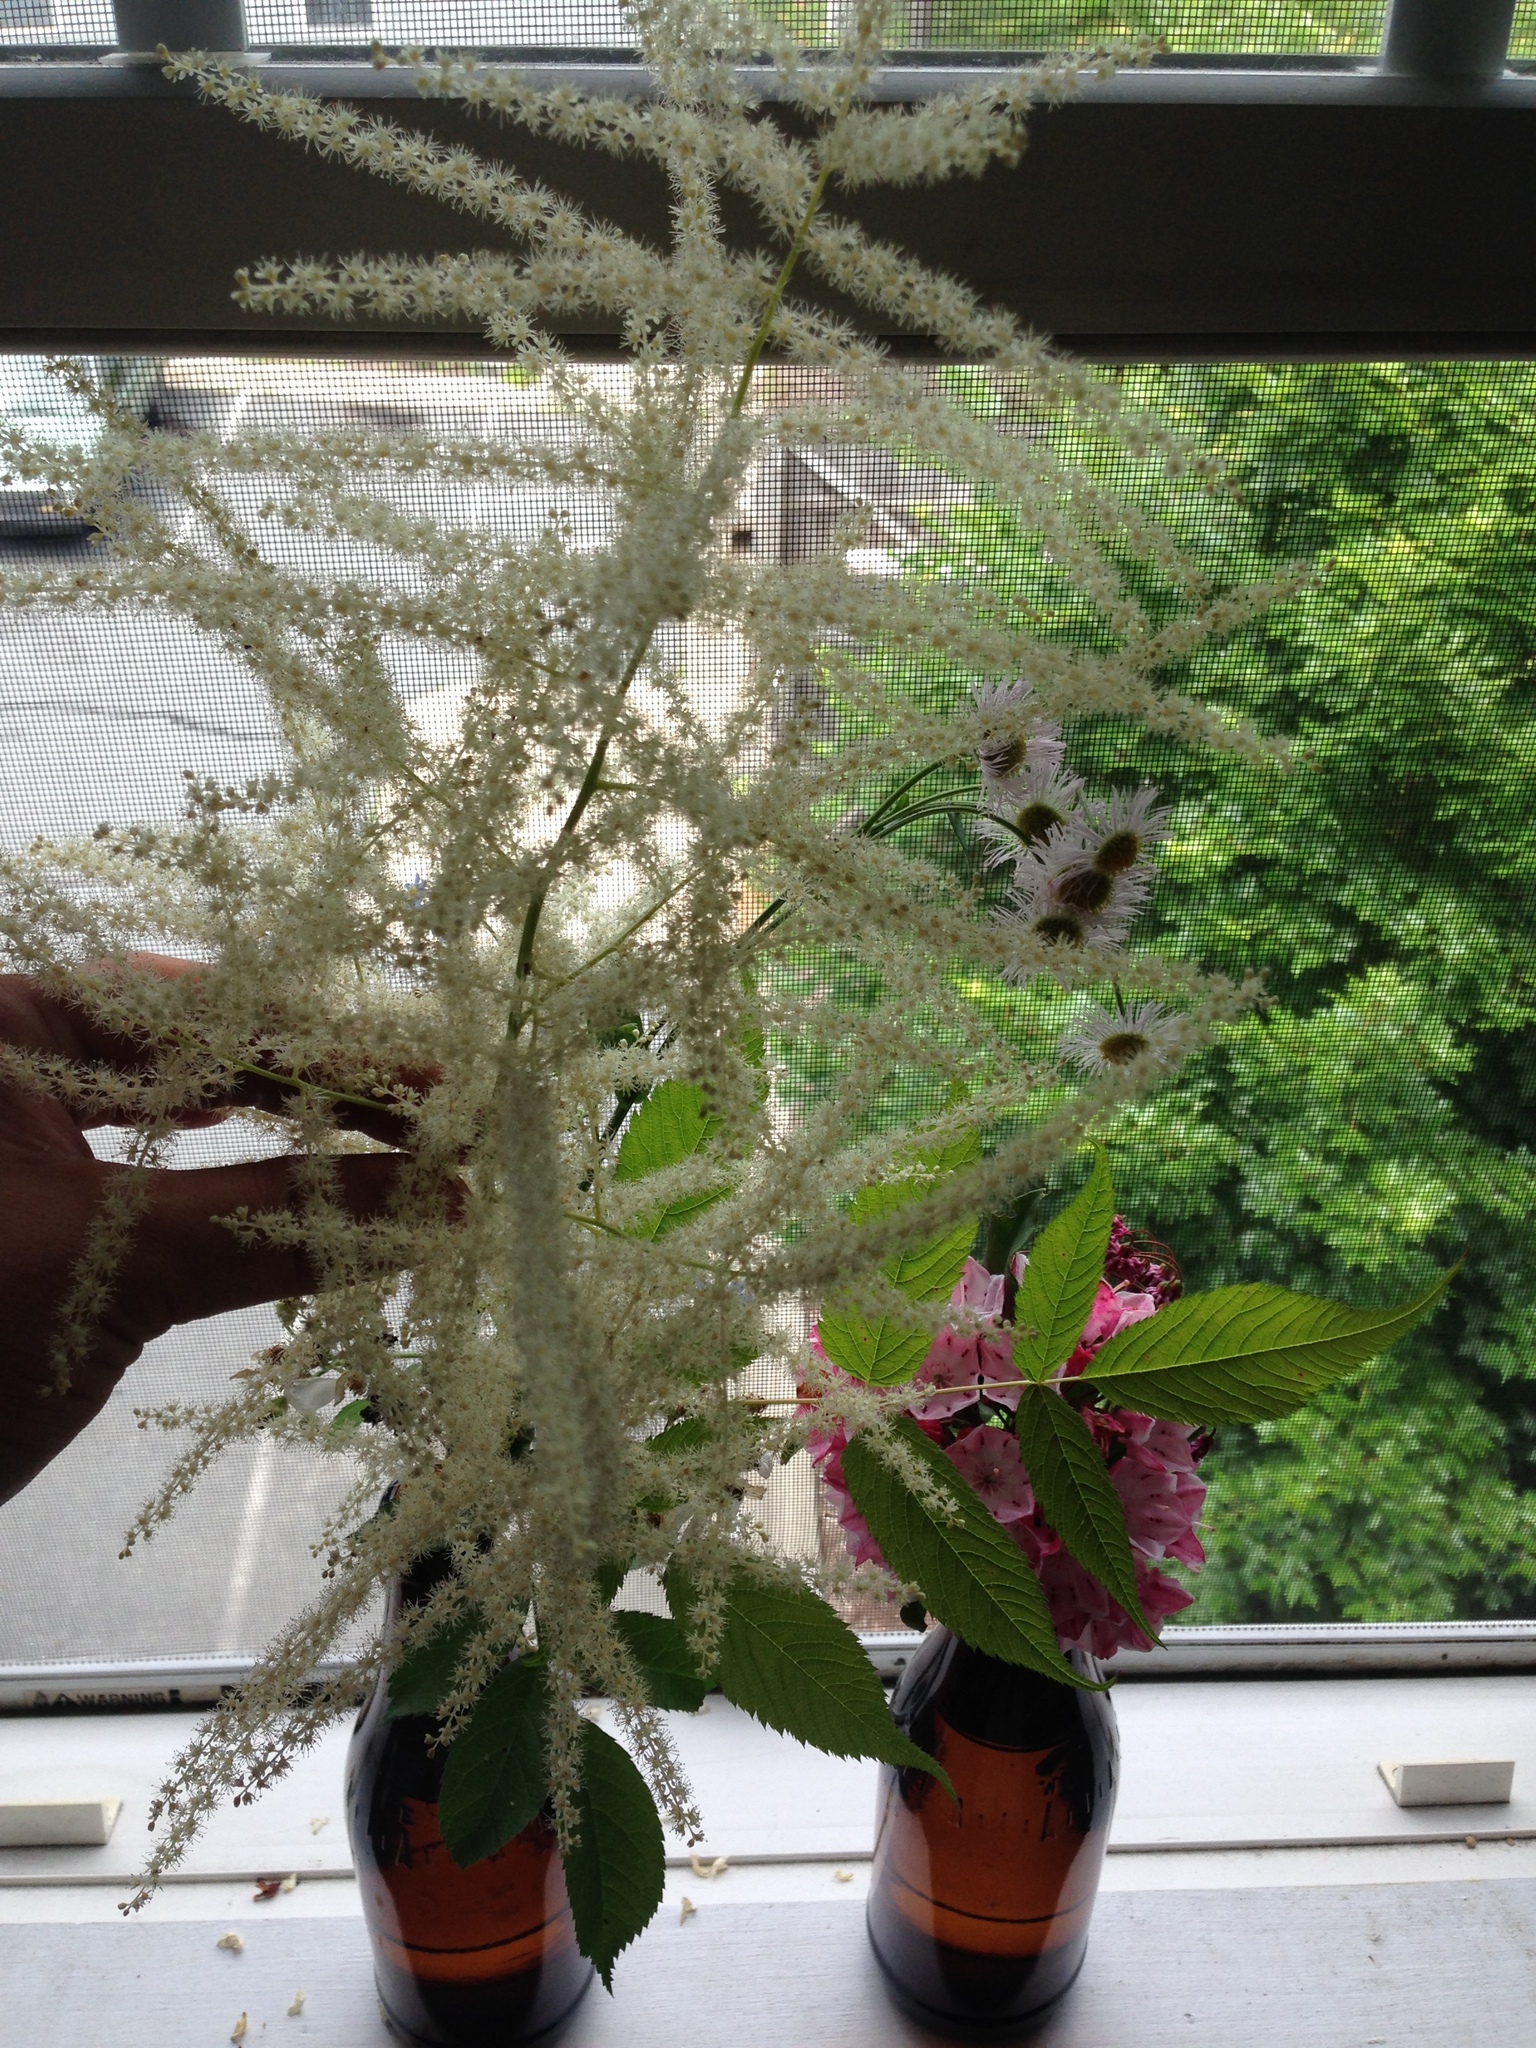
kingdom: Plantae
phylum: Tracheophyta
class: Magnoliopsida
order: Rosales
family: Rosaceae
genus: Aruncus
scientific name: Aruncus dioicus
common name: Buck's-beard
